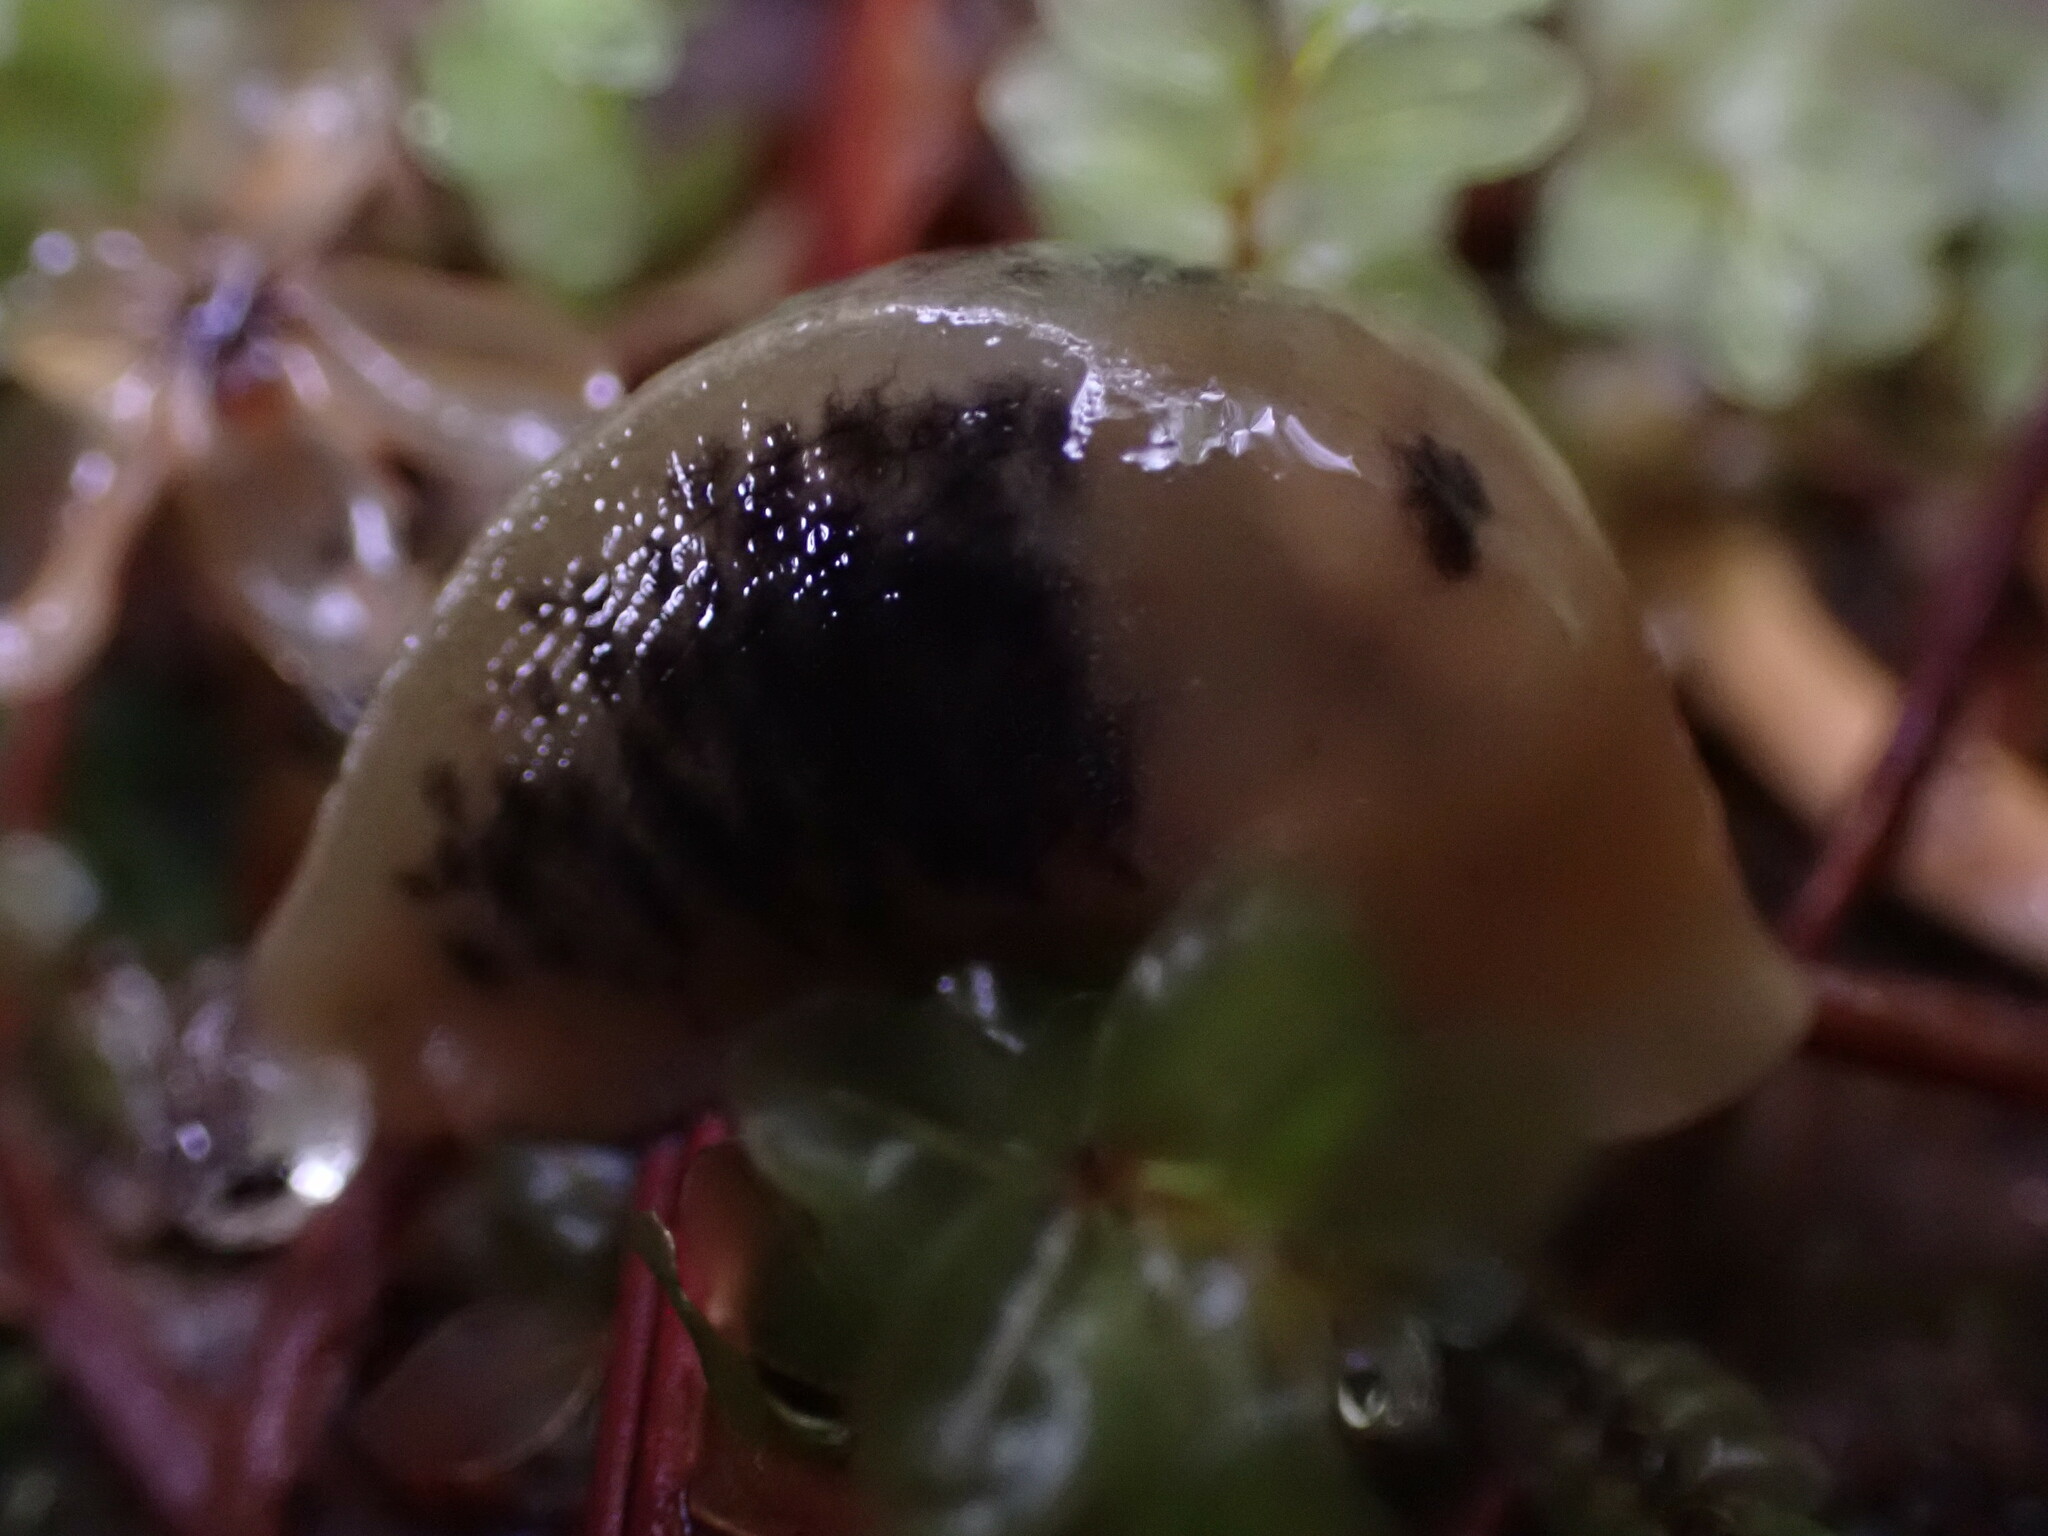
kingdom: Animalia
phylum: Mollusca
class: Gastropoda
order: Stylommatophora
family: Ariolimacidae
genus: Ariolimax
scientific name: Ariolimax columbianus
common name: Pacific banana slug
